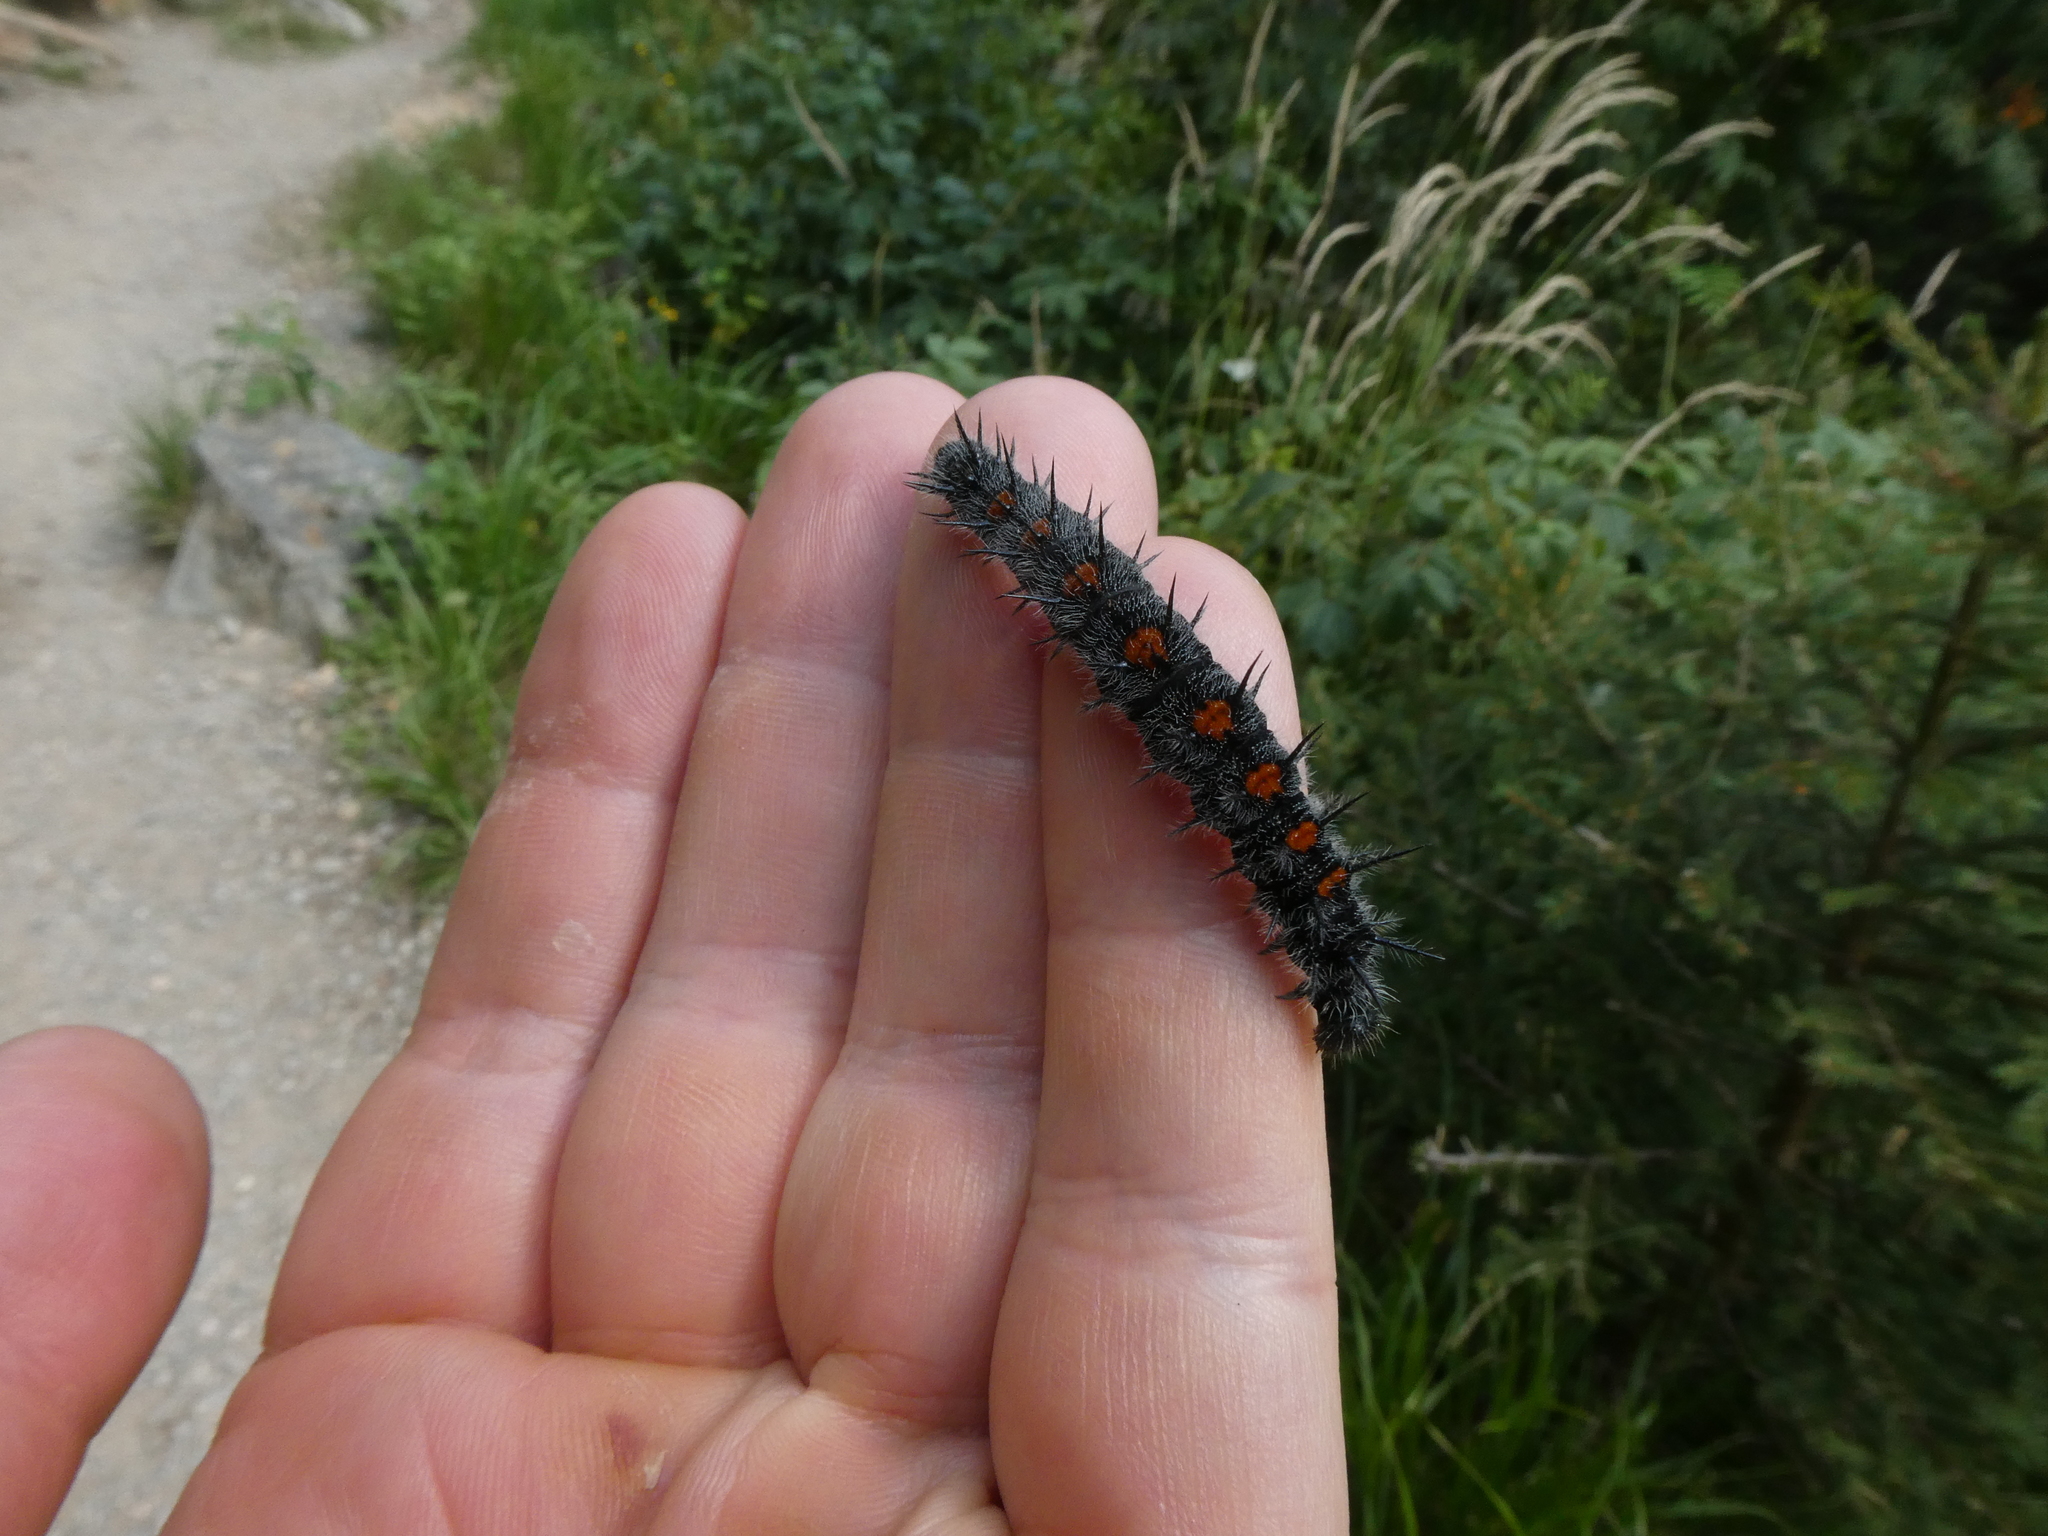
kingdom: Animalia
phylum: Arthropoda
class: Insecta
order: Lepidoptera
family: Nymphalidae
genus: Nymphalis
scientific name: Nymphalis antiopa
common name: Camberwell beauty
